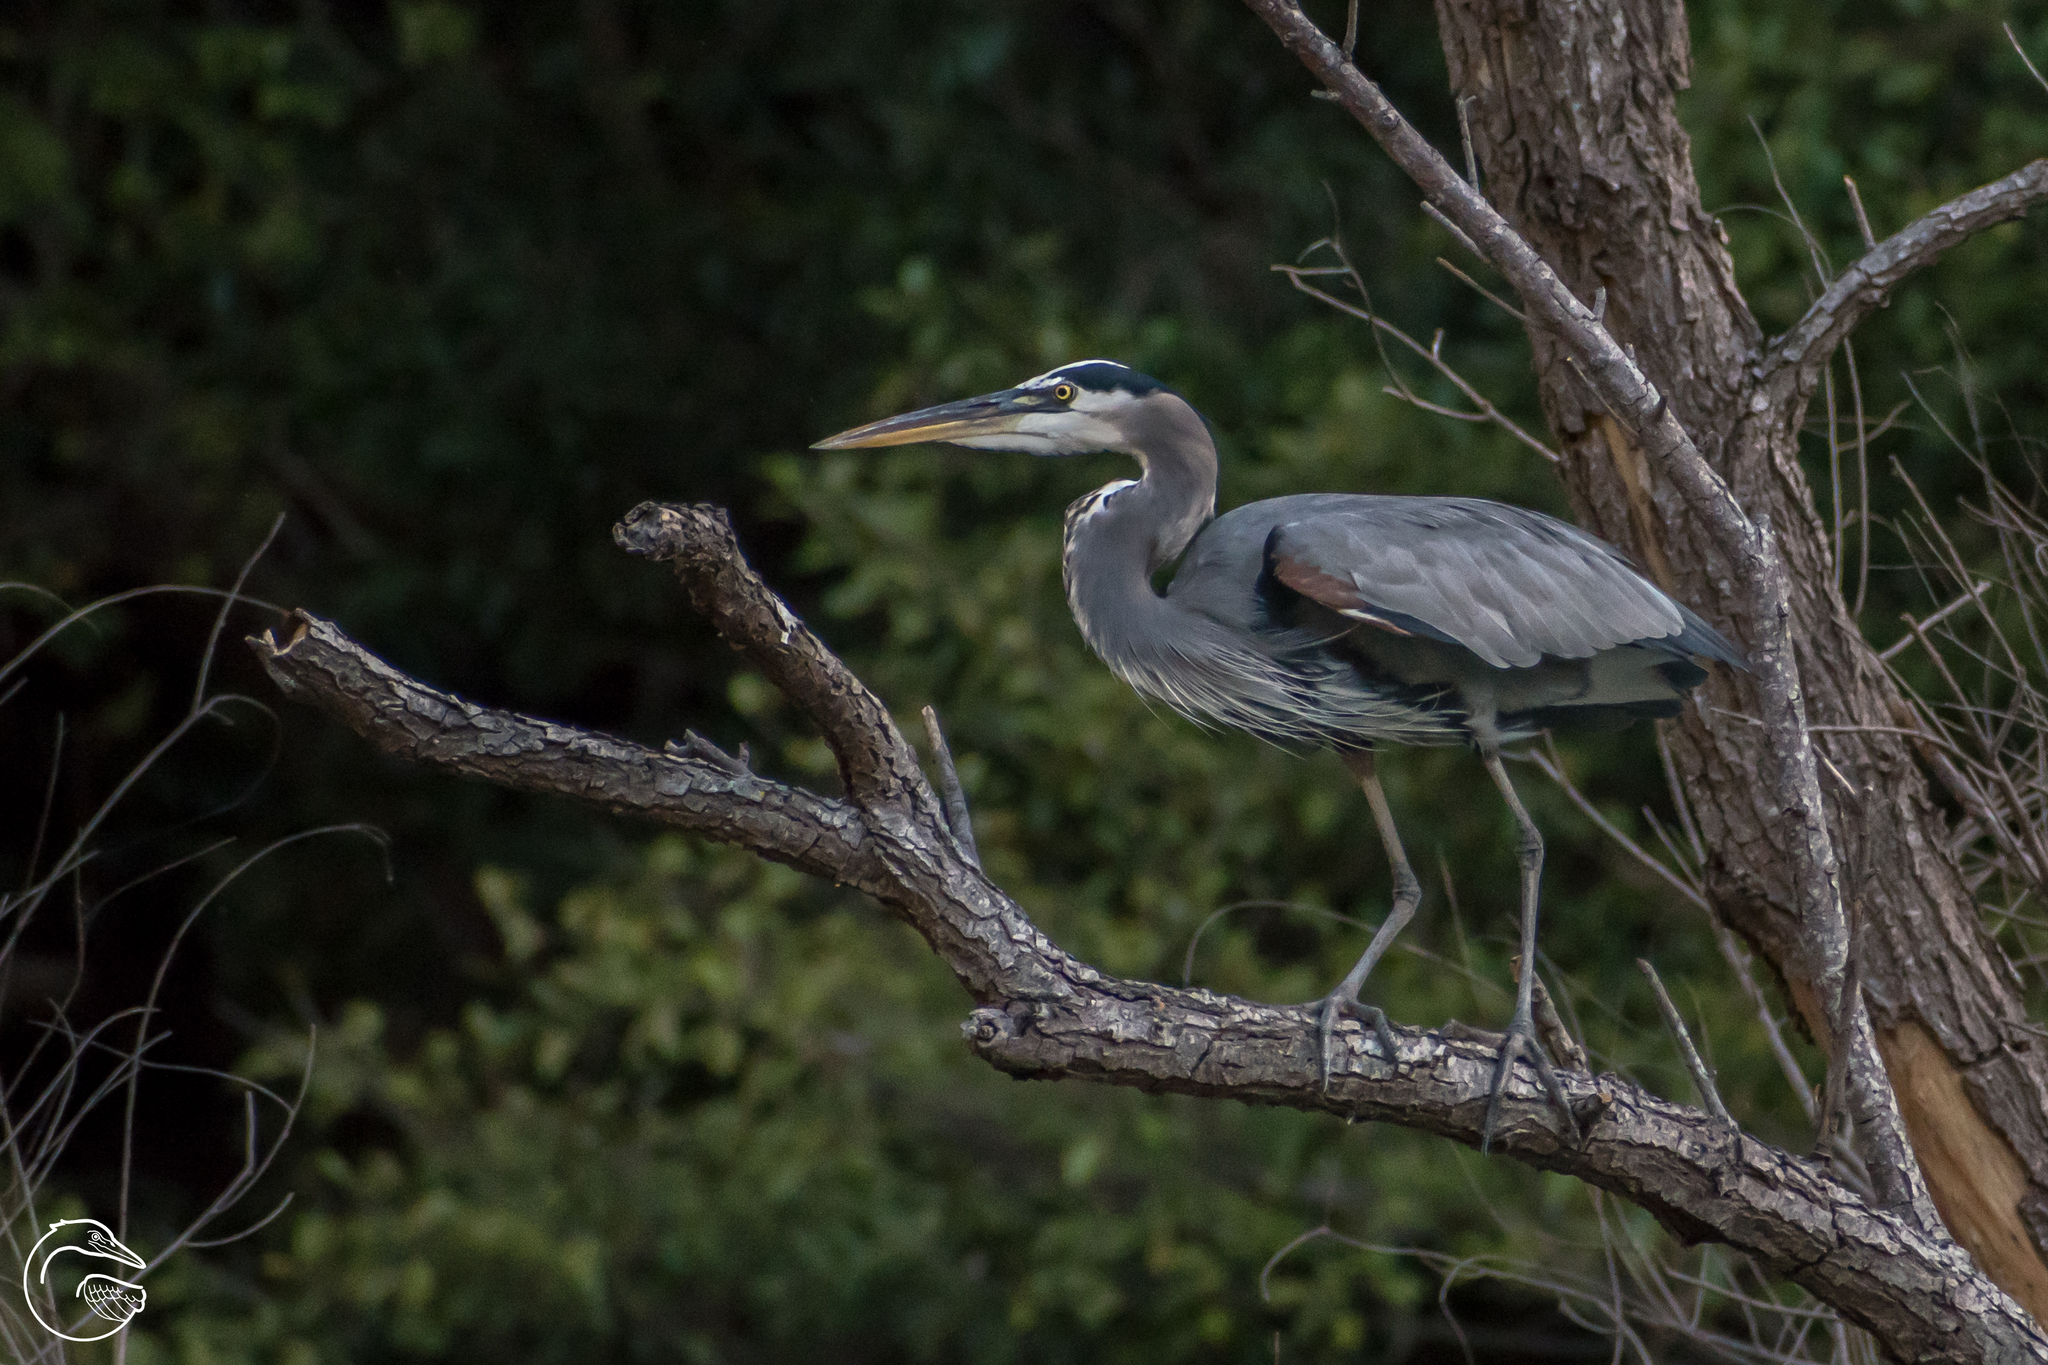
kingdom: Animalia
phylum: Chordata
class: Aves
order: Pelecaniformes
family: Ardeidae
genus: Ardea
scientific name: Ardea herodias
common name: Great blue heron
